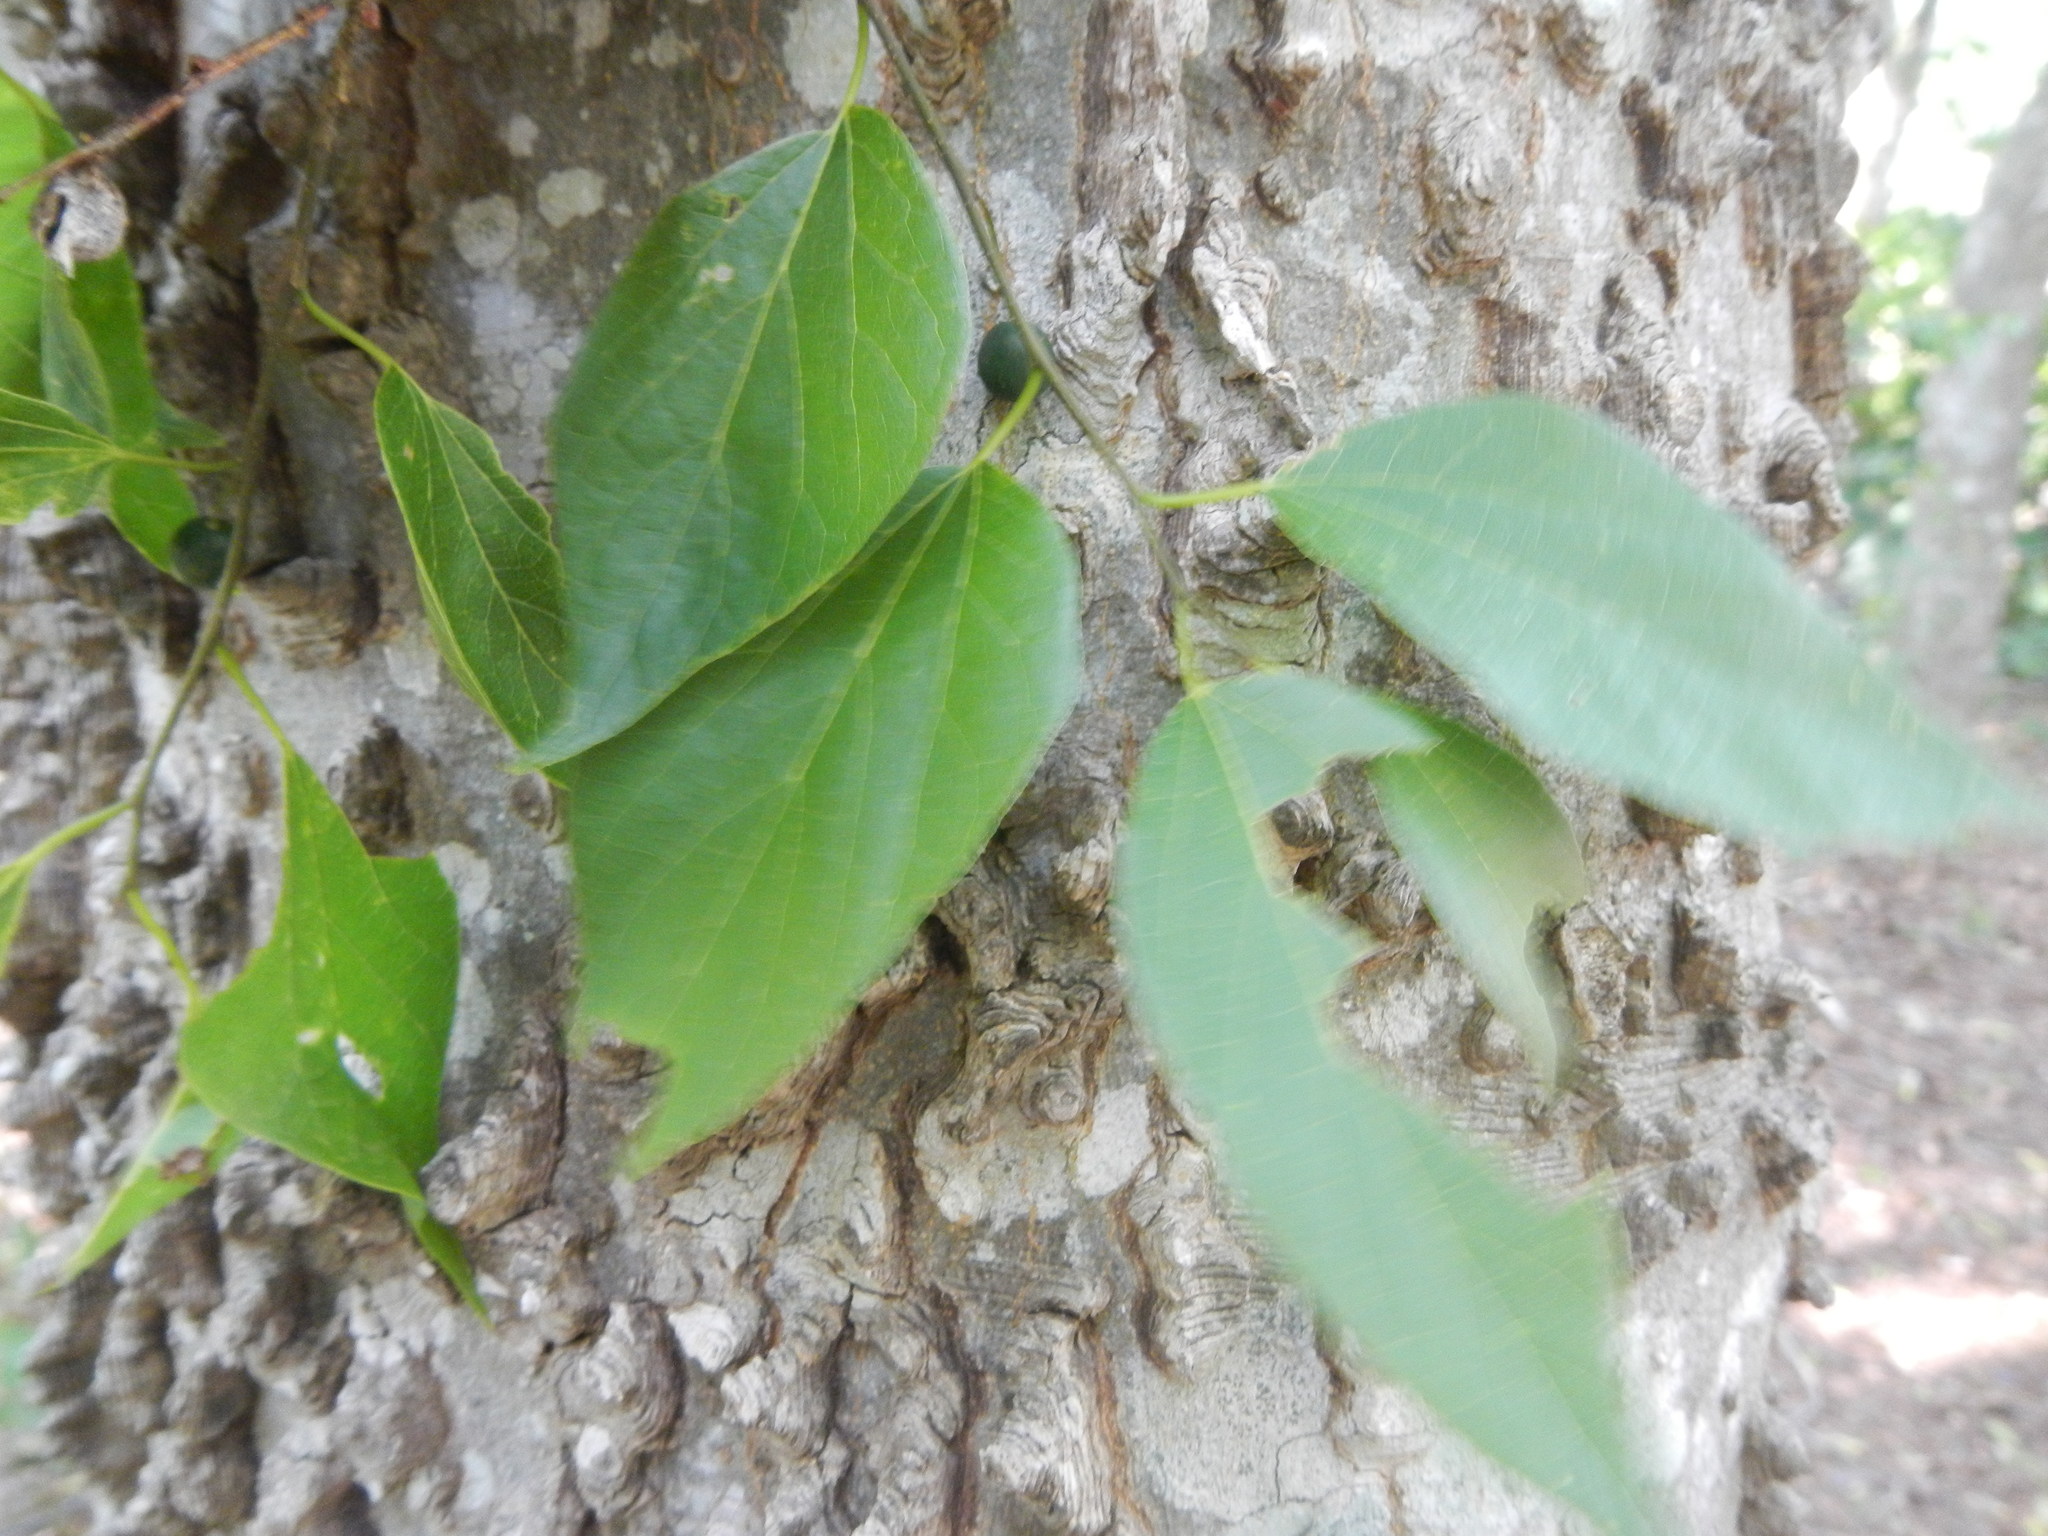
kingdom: Plantae
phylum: Tracheophyta
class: Magnoliopsida
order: Rosales
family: Cannabaceae
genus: Celtis
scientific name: Celtis laevigata
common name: Sugarberry
